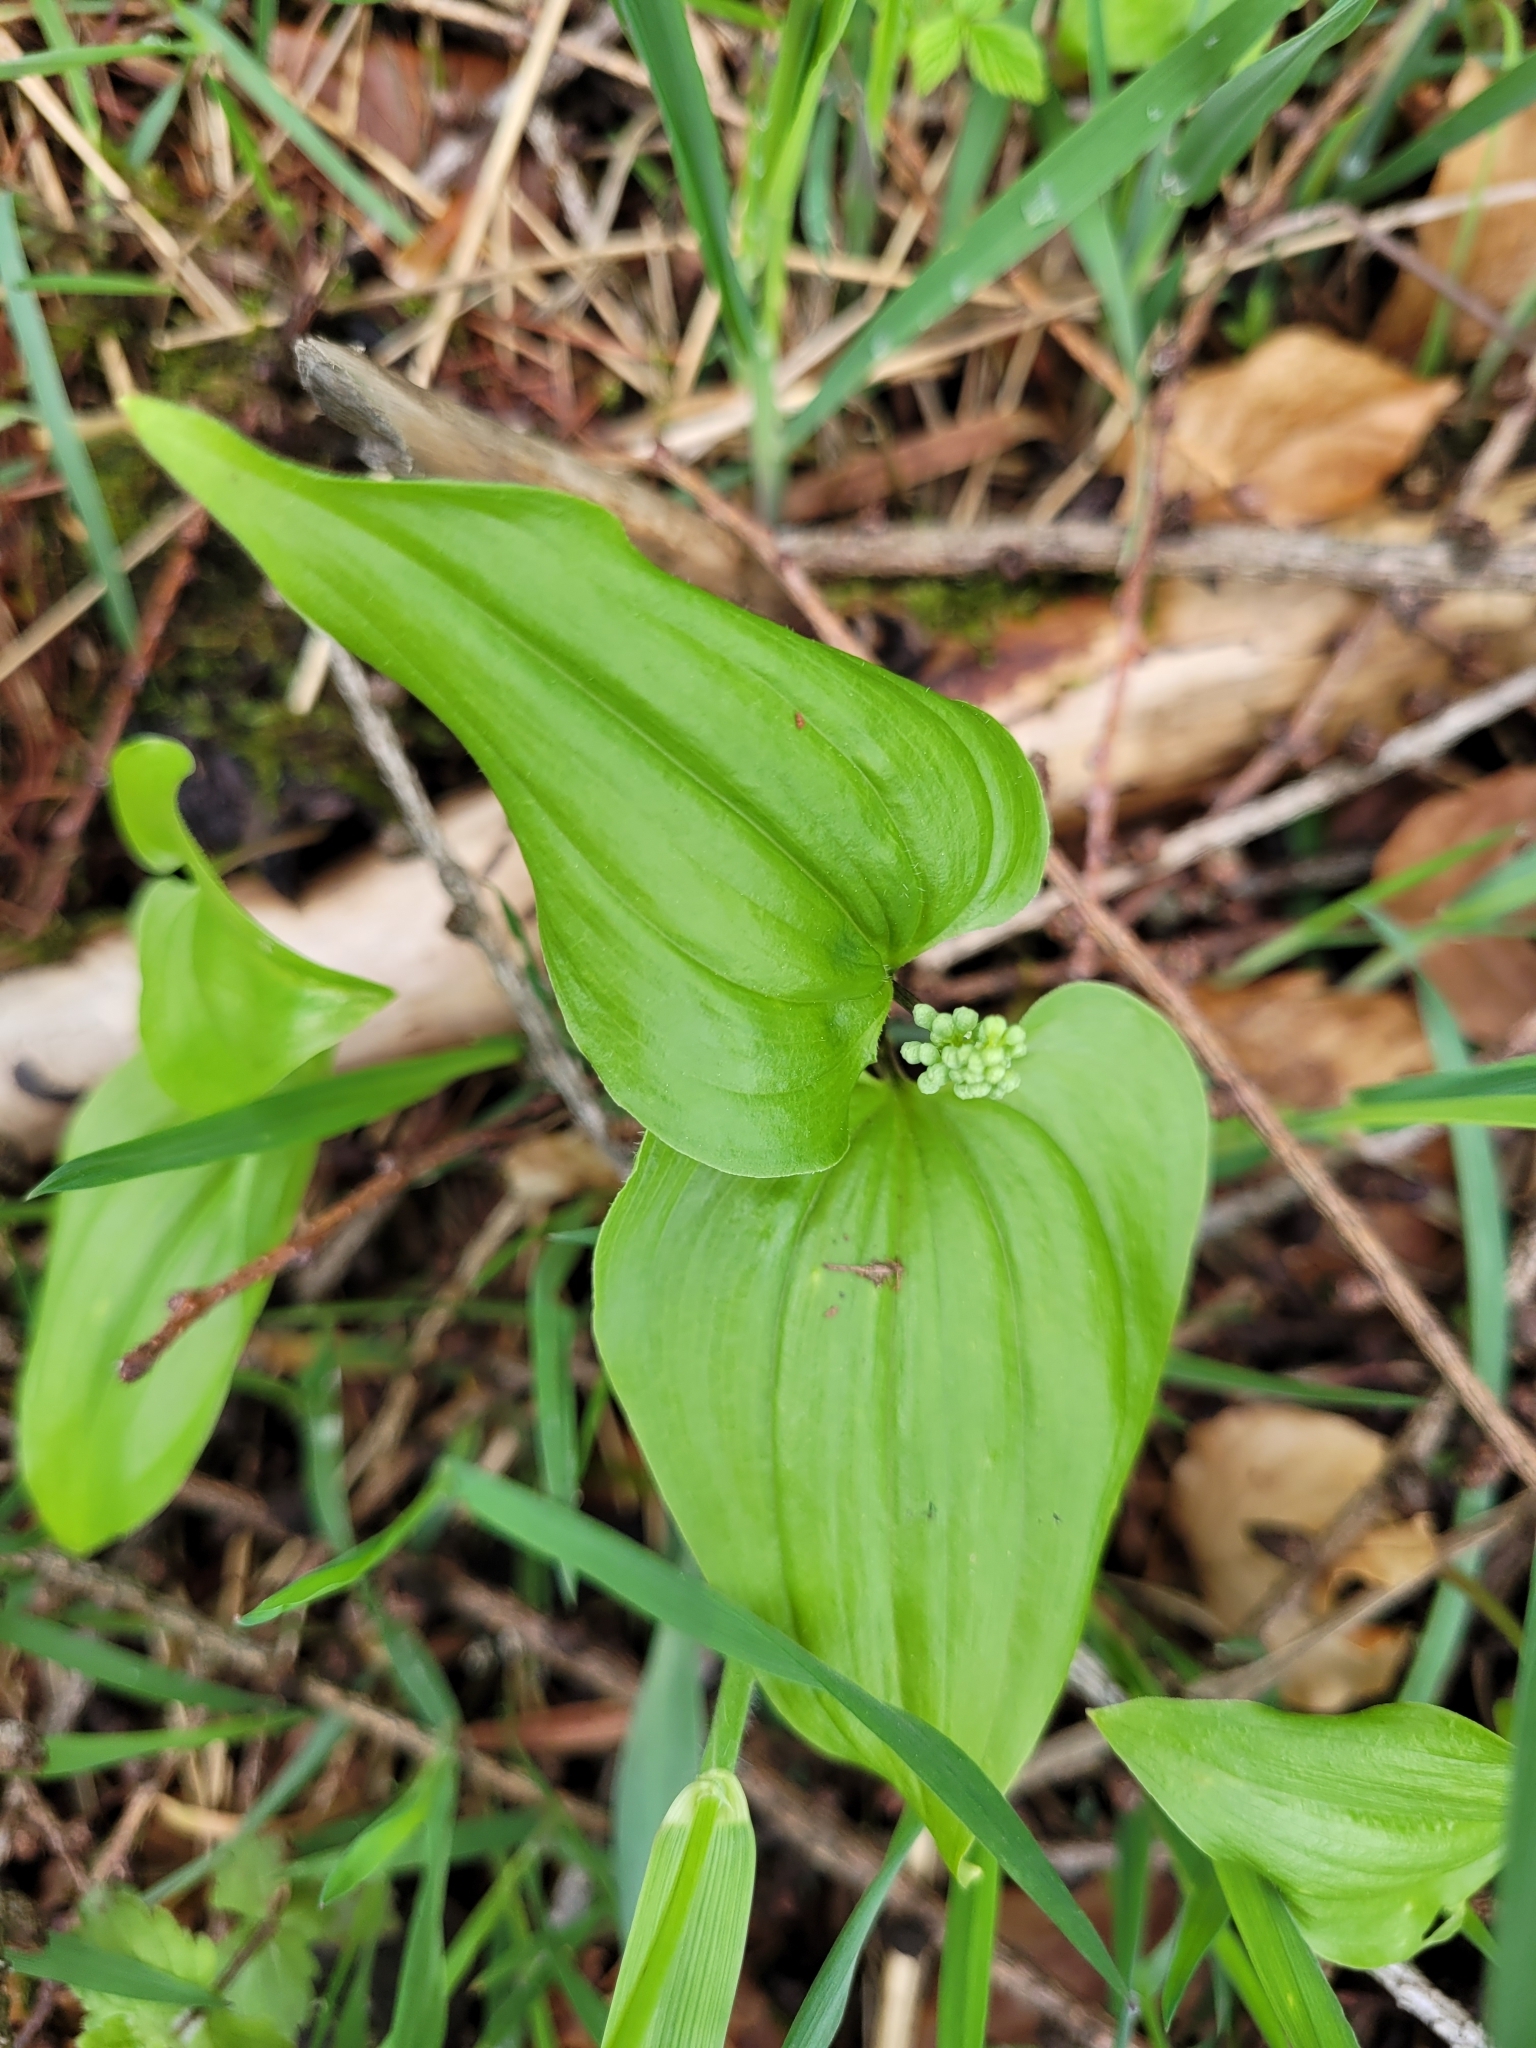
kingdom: Plantae
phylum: Tracheophyta
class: Liliopsida
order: Asparagales
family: Asparagaceae
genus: Maianthemum
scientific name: Maianthemum bifolium
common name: May lily
